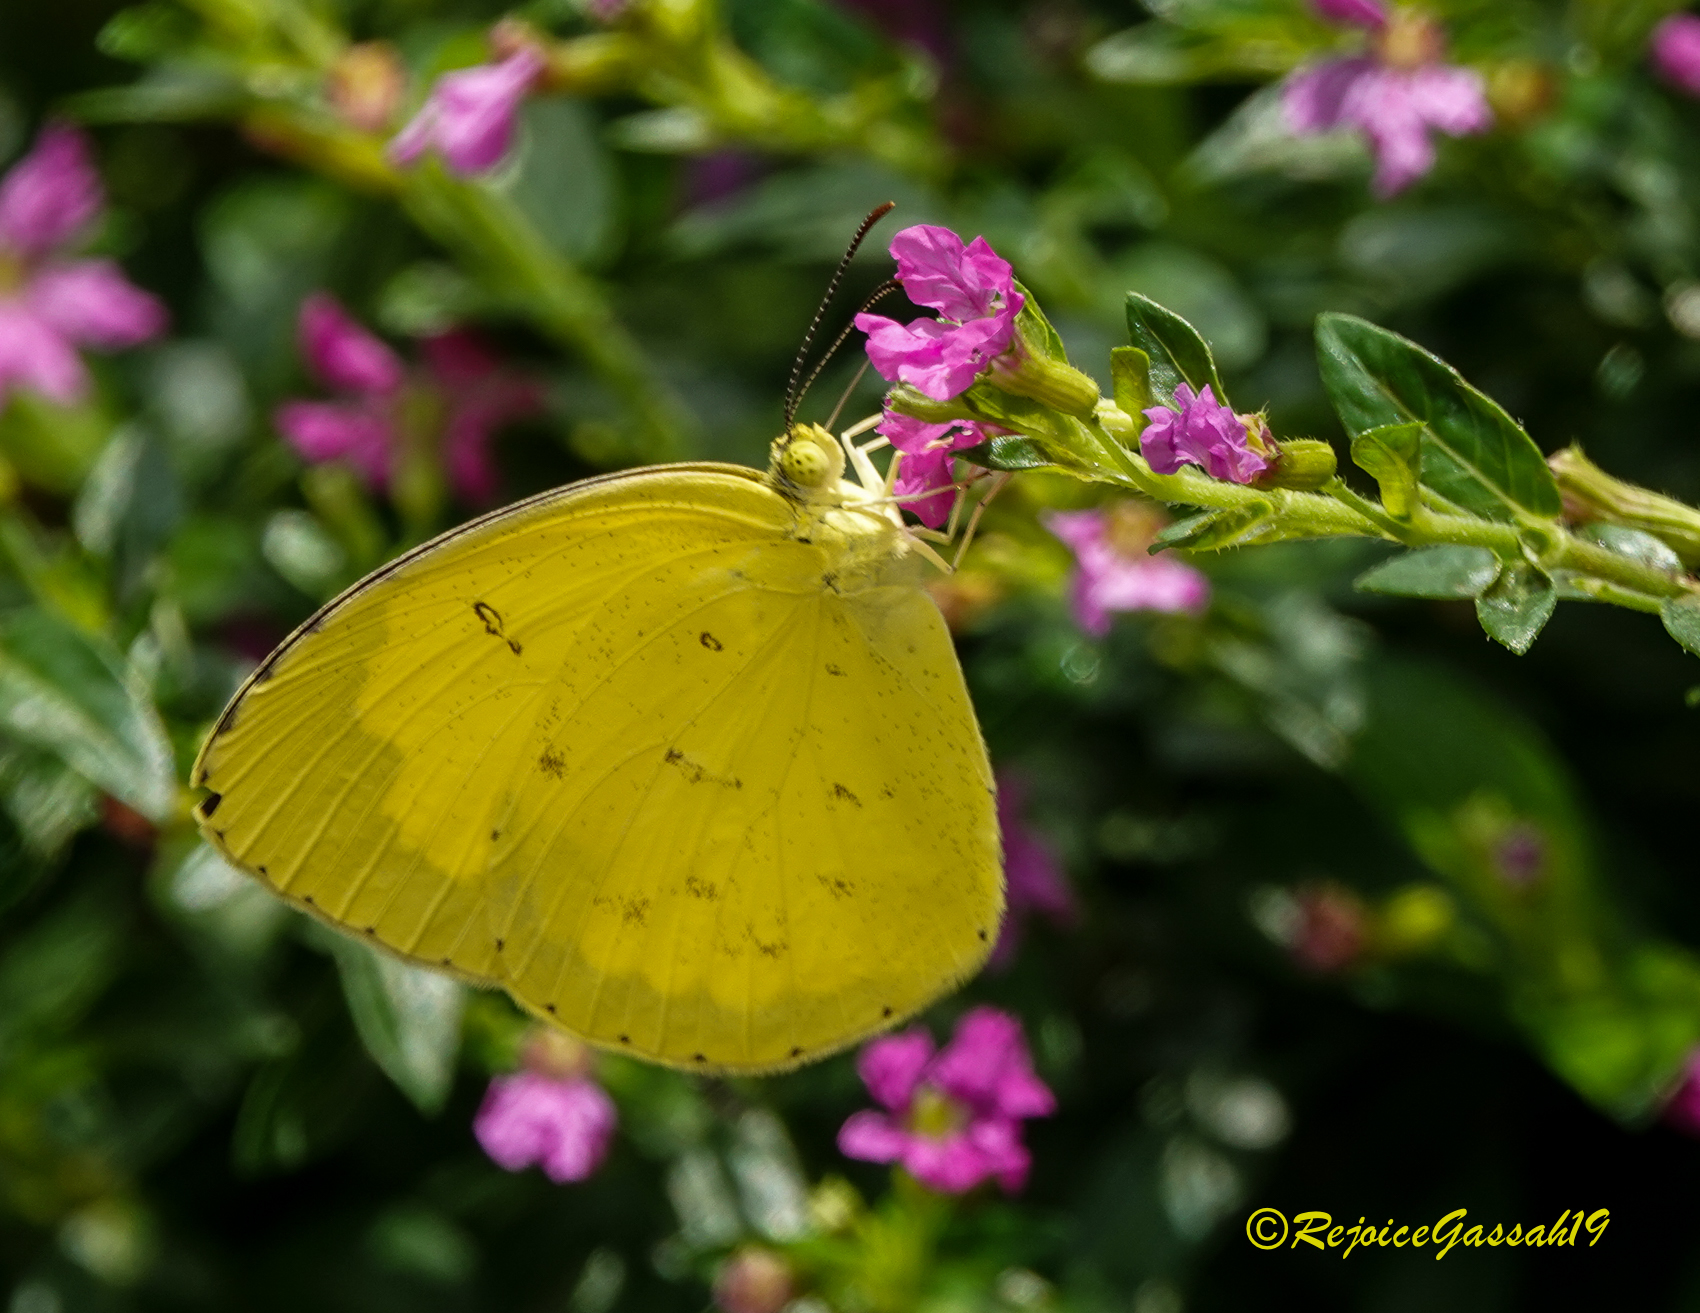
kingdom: Animalia
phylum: Arthropoda
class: Insecta
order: Lepidoptera
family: Pieridae
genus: Eurema
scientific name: Eurema hecabe
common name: Pale grass yellow
